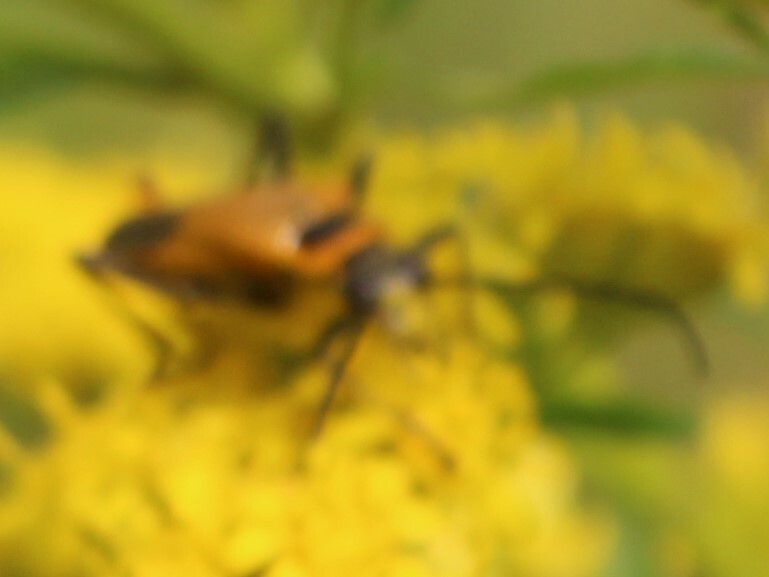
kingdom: Animalia
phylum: Arthropoda
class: Insecta
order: Coleoptera
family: Cantharidae
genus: Chauliognathus
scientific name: Chauliognathus pensylvanicus
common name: Goldenrod soldier beetle
